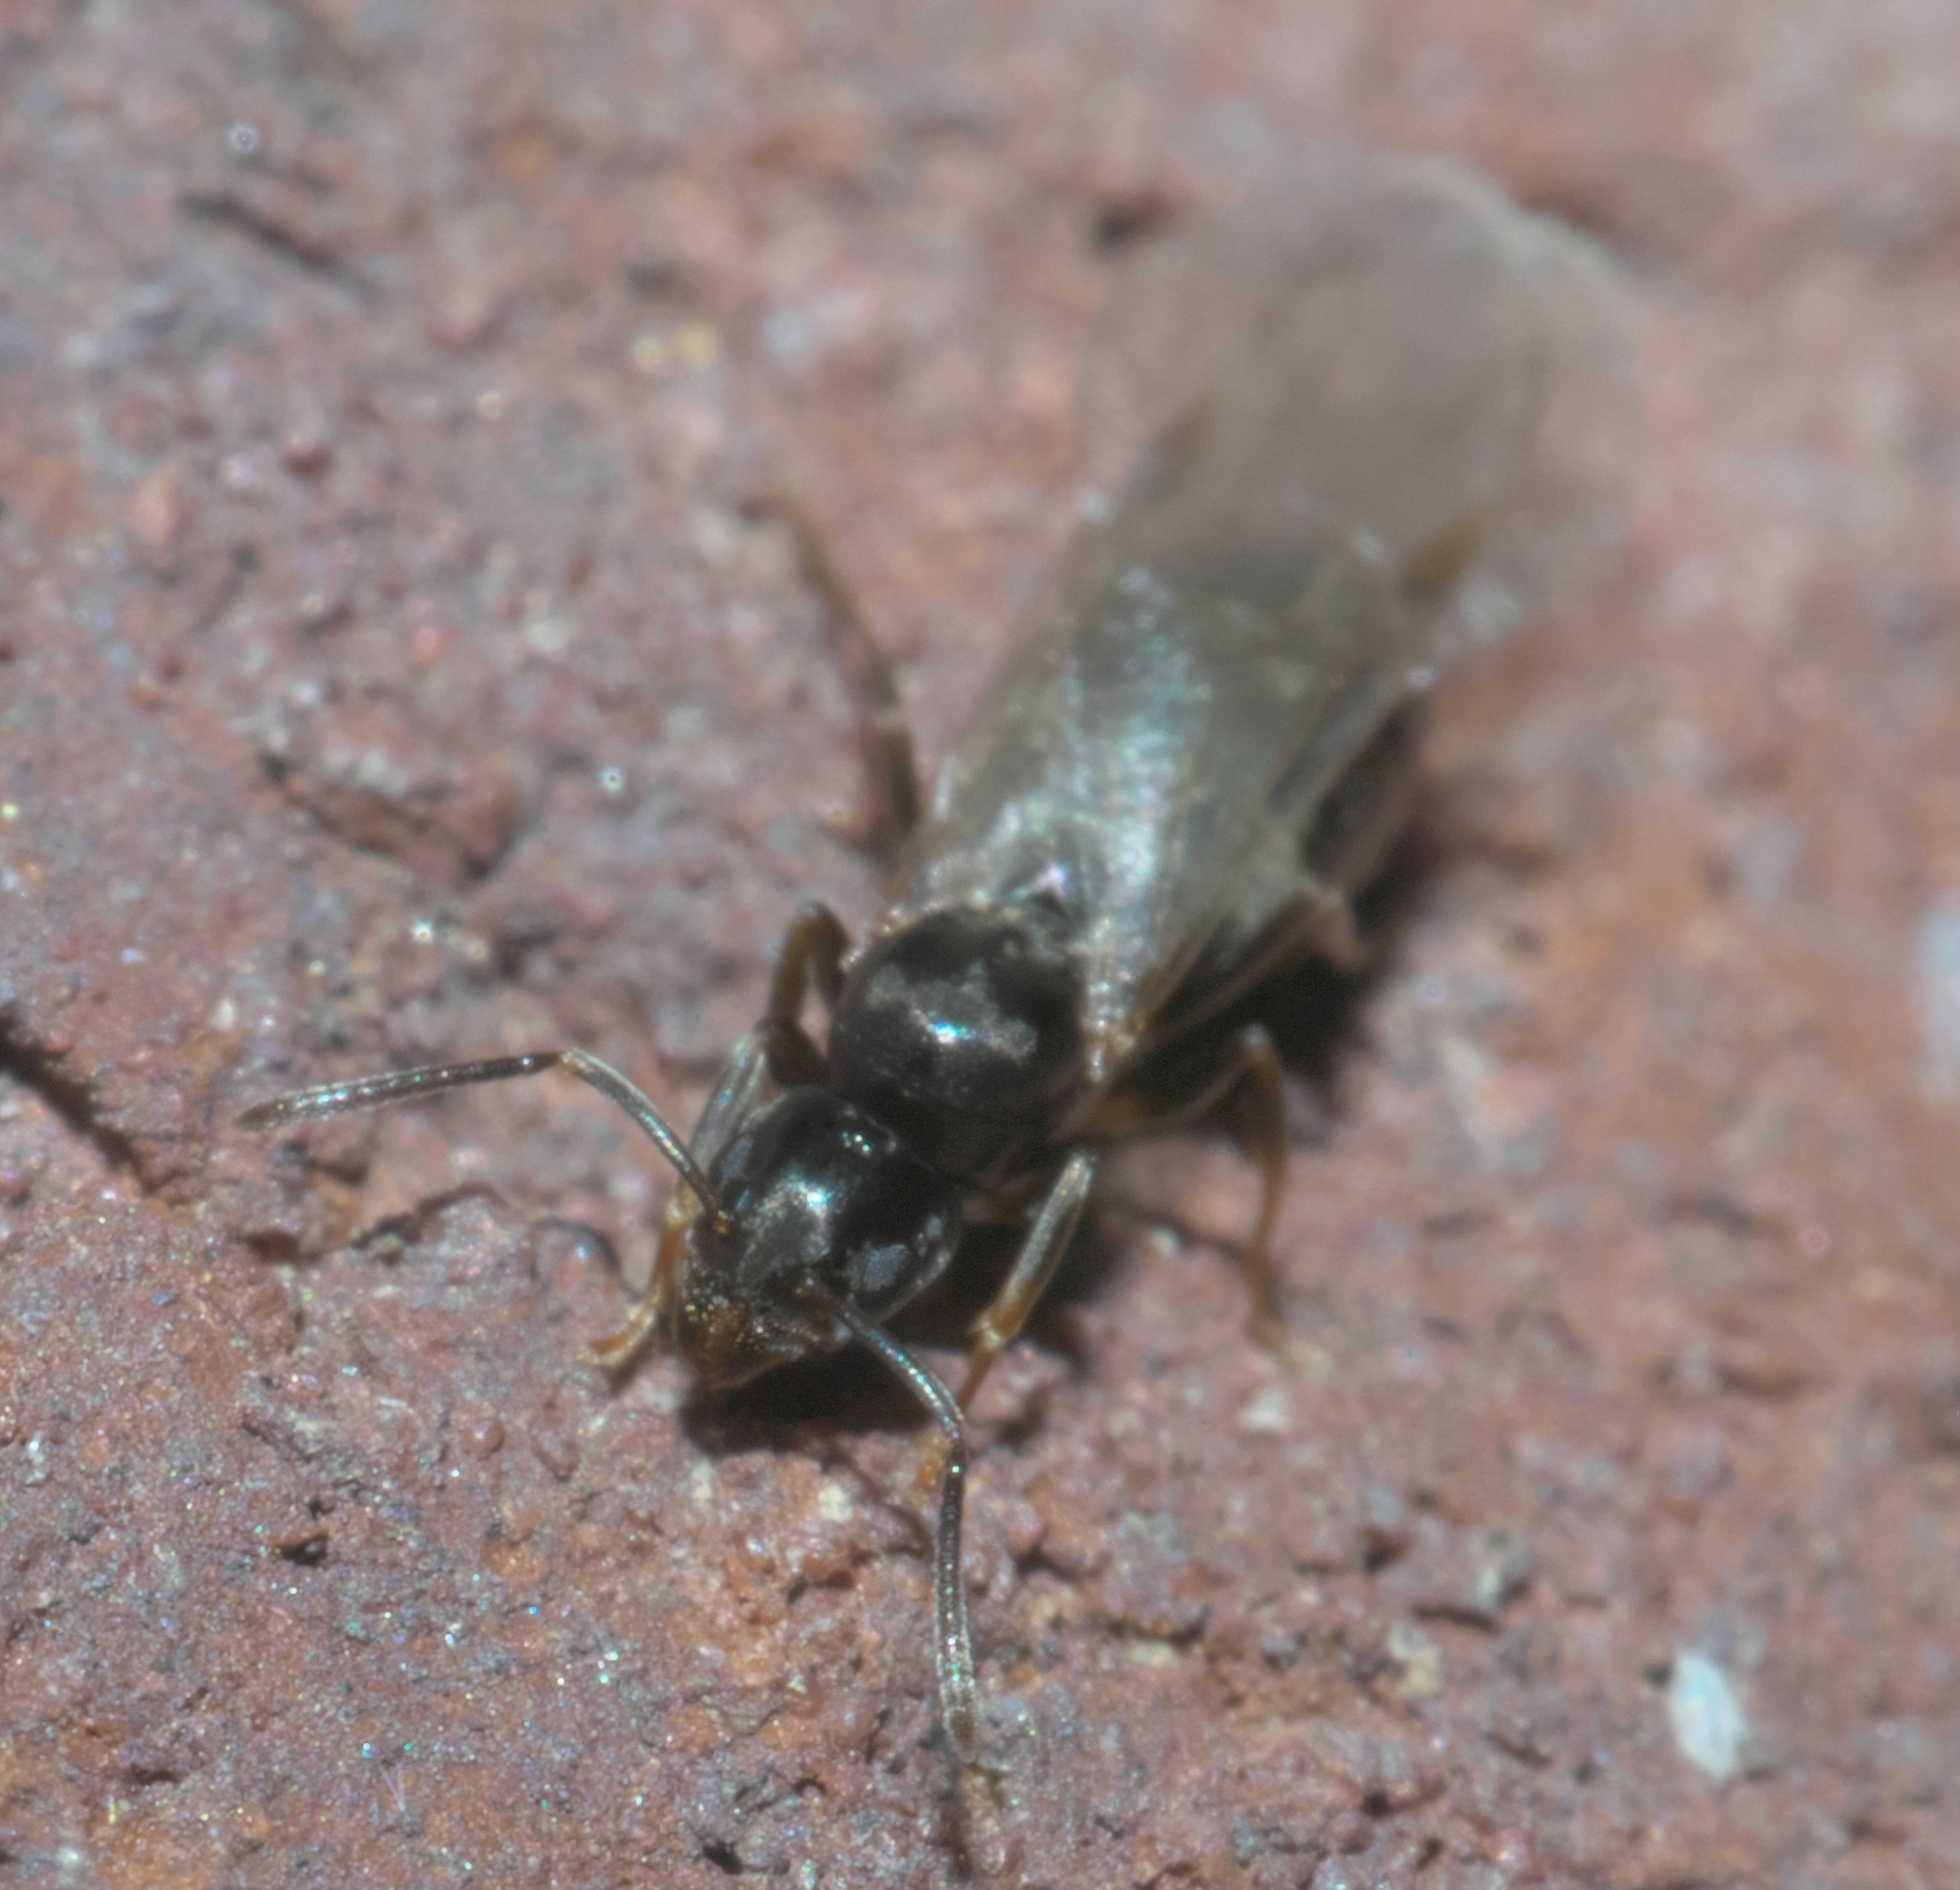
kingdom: Animalia
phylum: Arthropoda
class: Insecta
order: Hymenoptera
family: Formicidae
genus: Tapinoma
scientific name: Tapinoma sessile
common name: Odorous house ant
